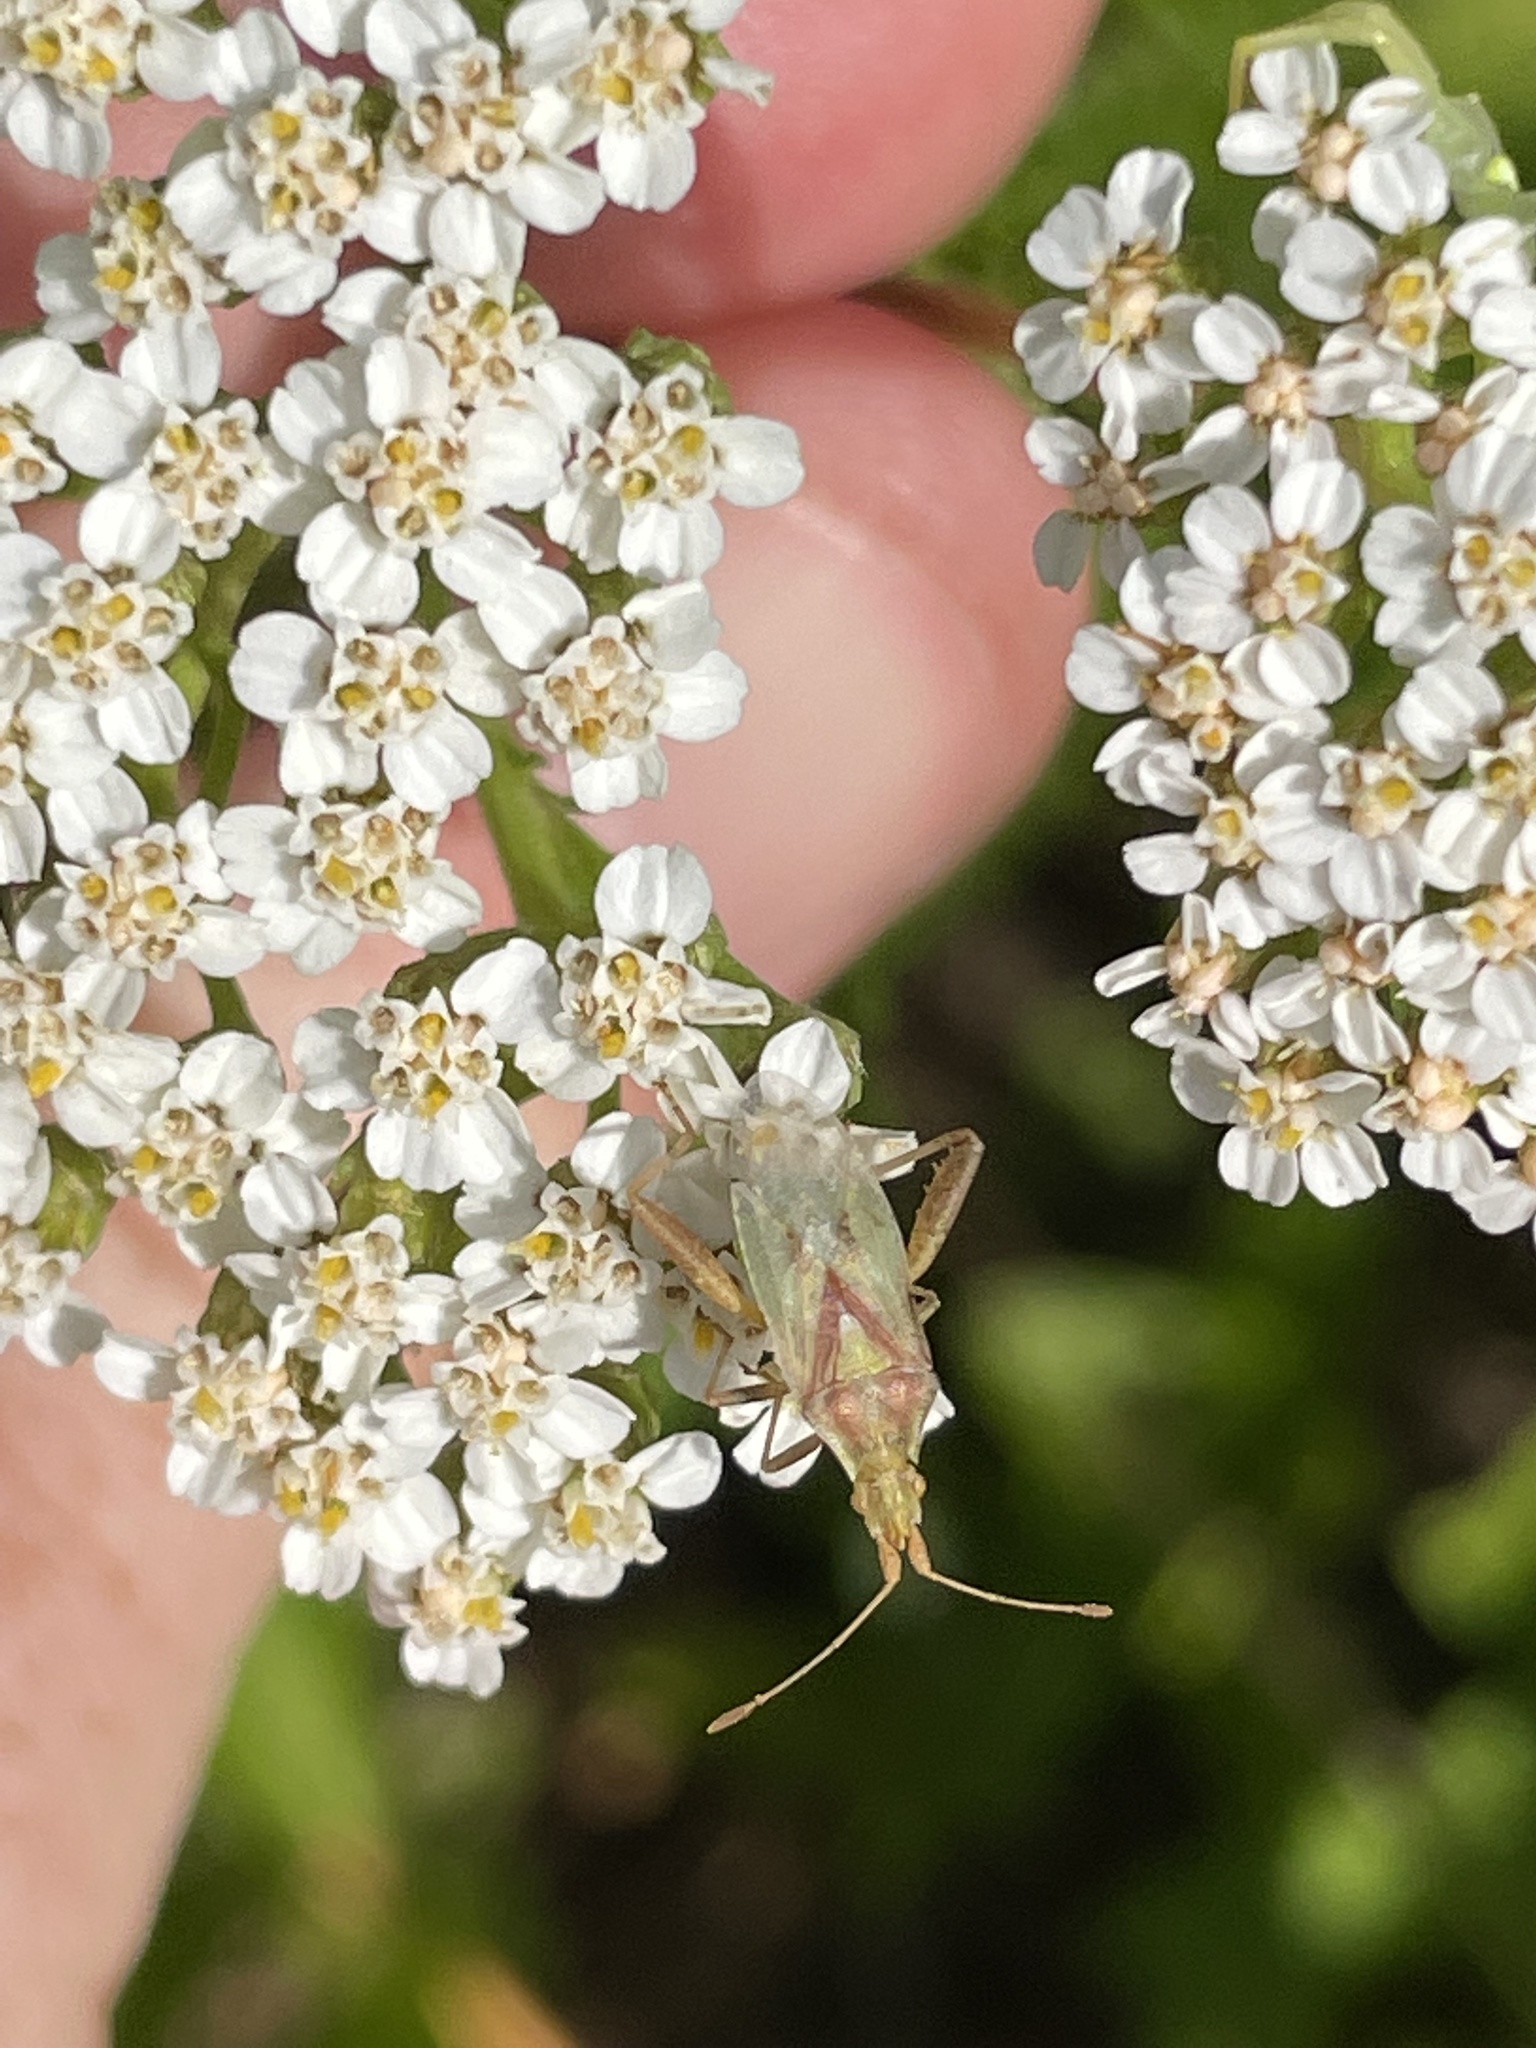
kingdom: Animalia
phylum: Arthropoda
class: Insecta
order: Hemiptera
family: Rhopalidae
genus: Harmostes
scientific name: Harmostes reflexulus
